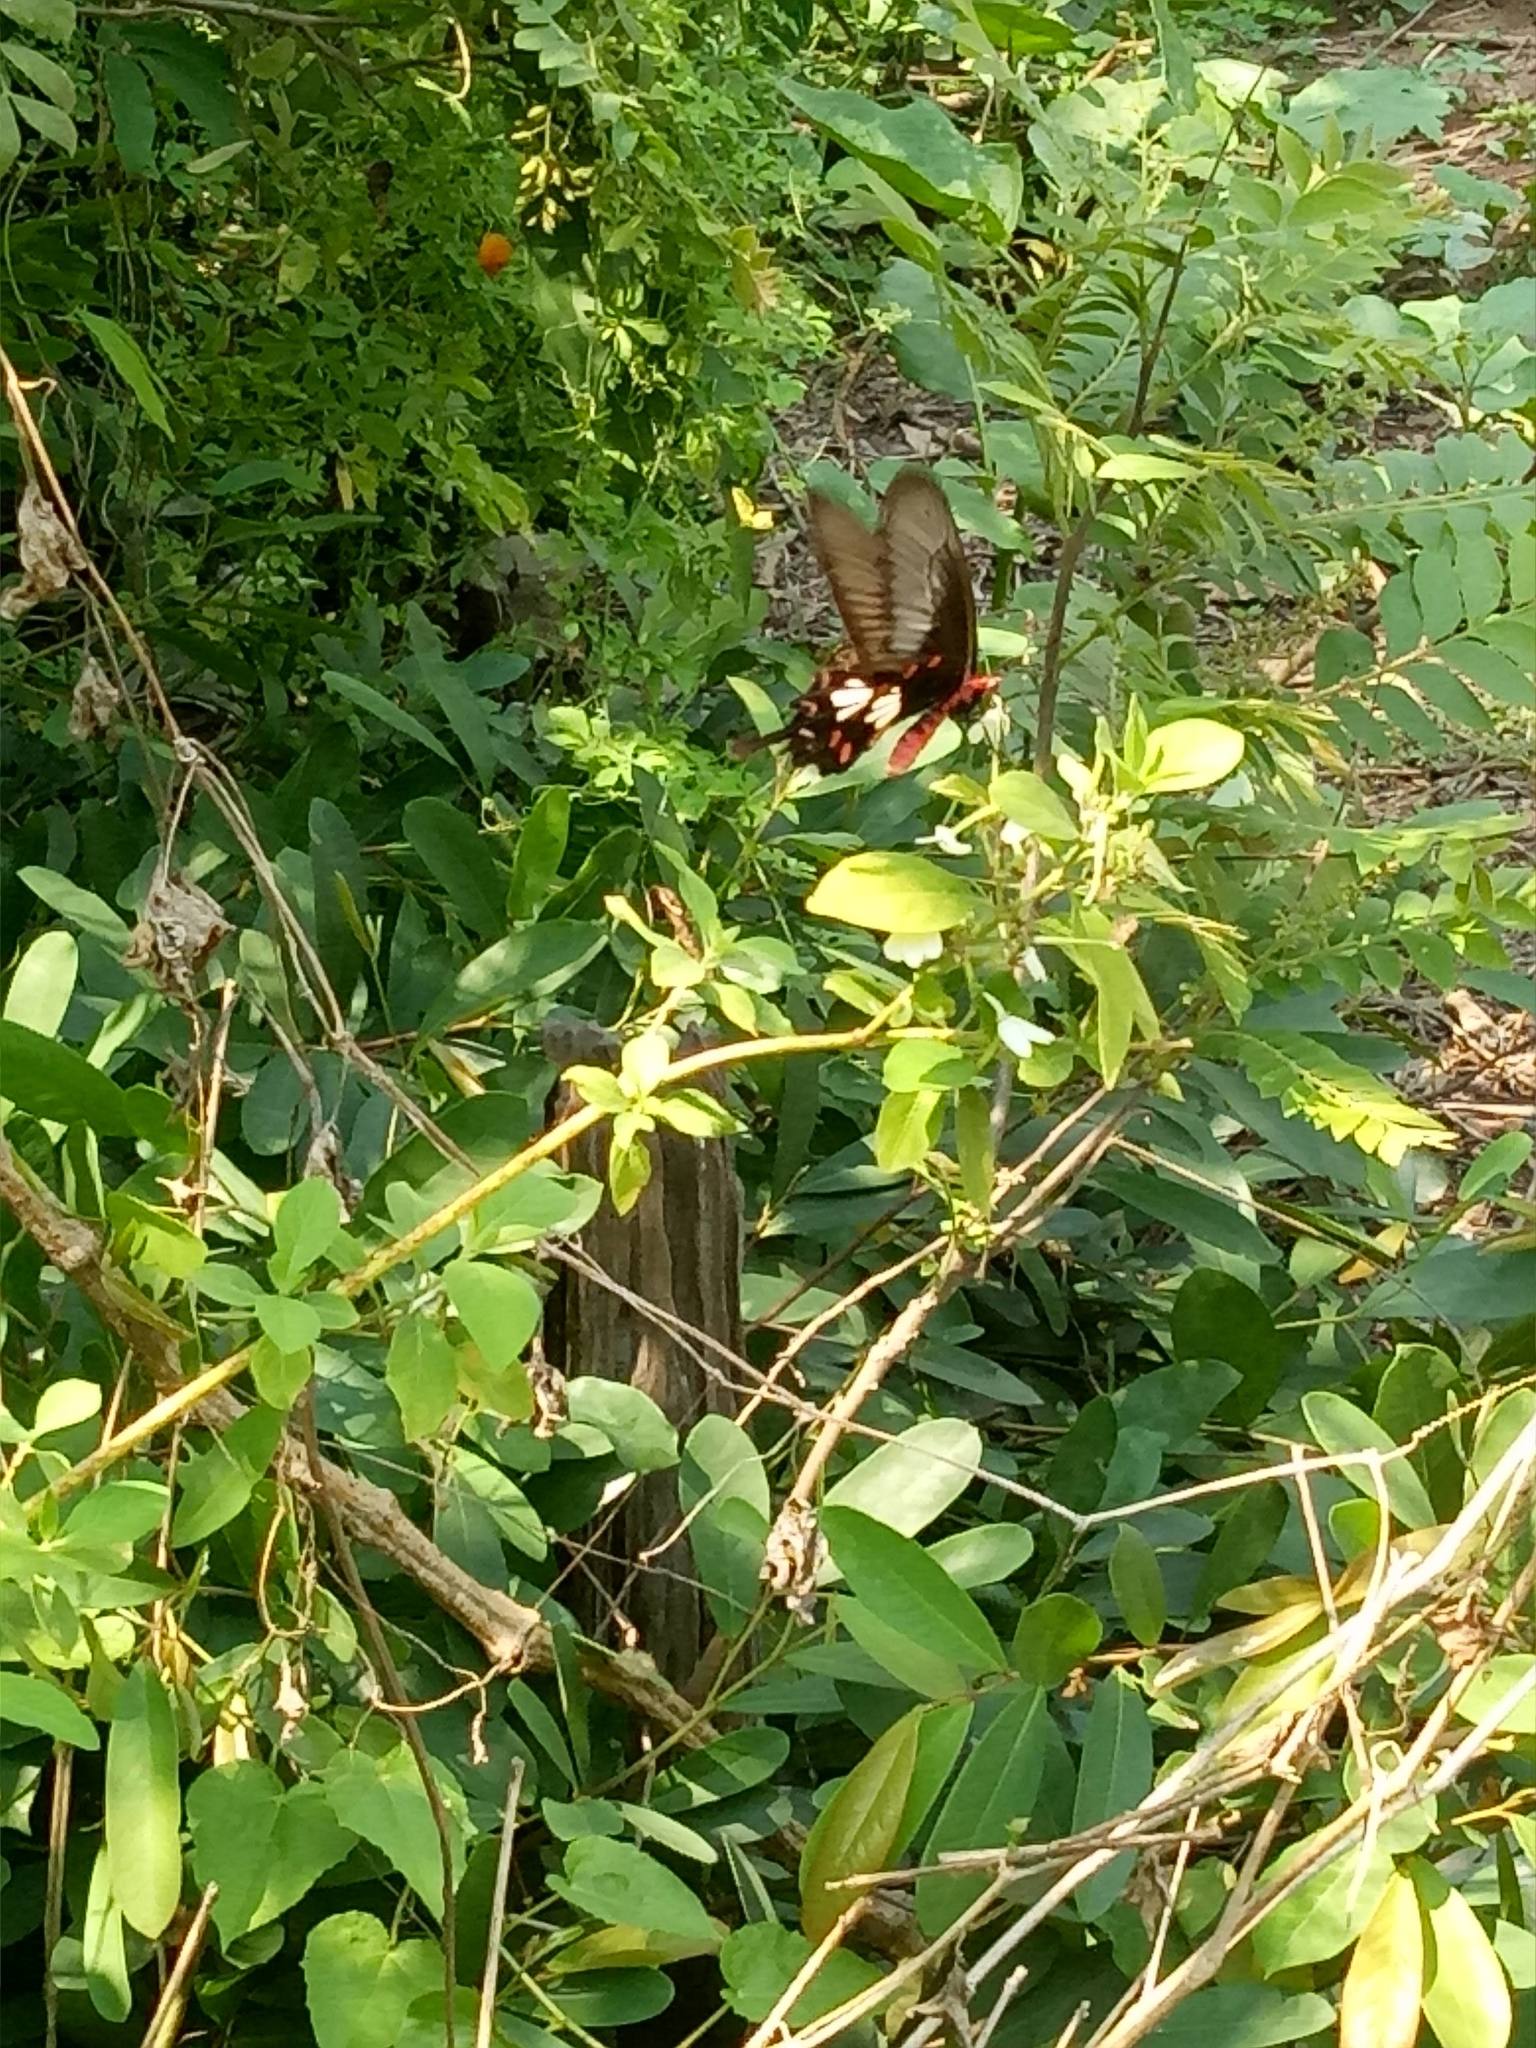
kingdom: Animalia
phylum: Arthropoda
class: Insecta
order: Lepidoptera
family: Papilionidae
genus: Pachliopta
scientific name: Pachliopta aristolochiae
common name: Common rose
